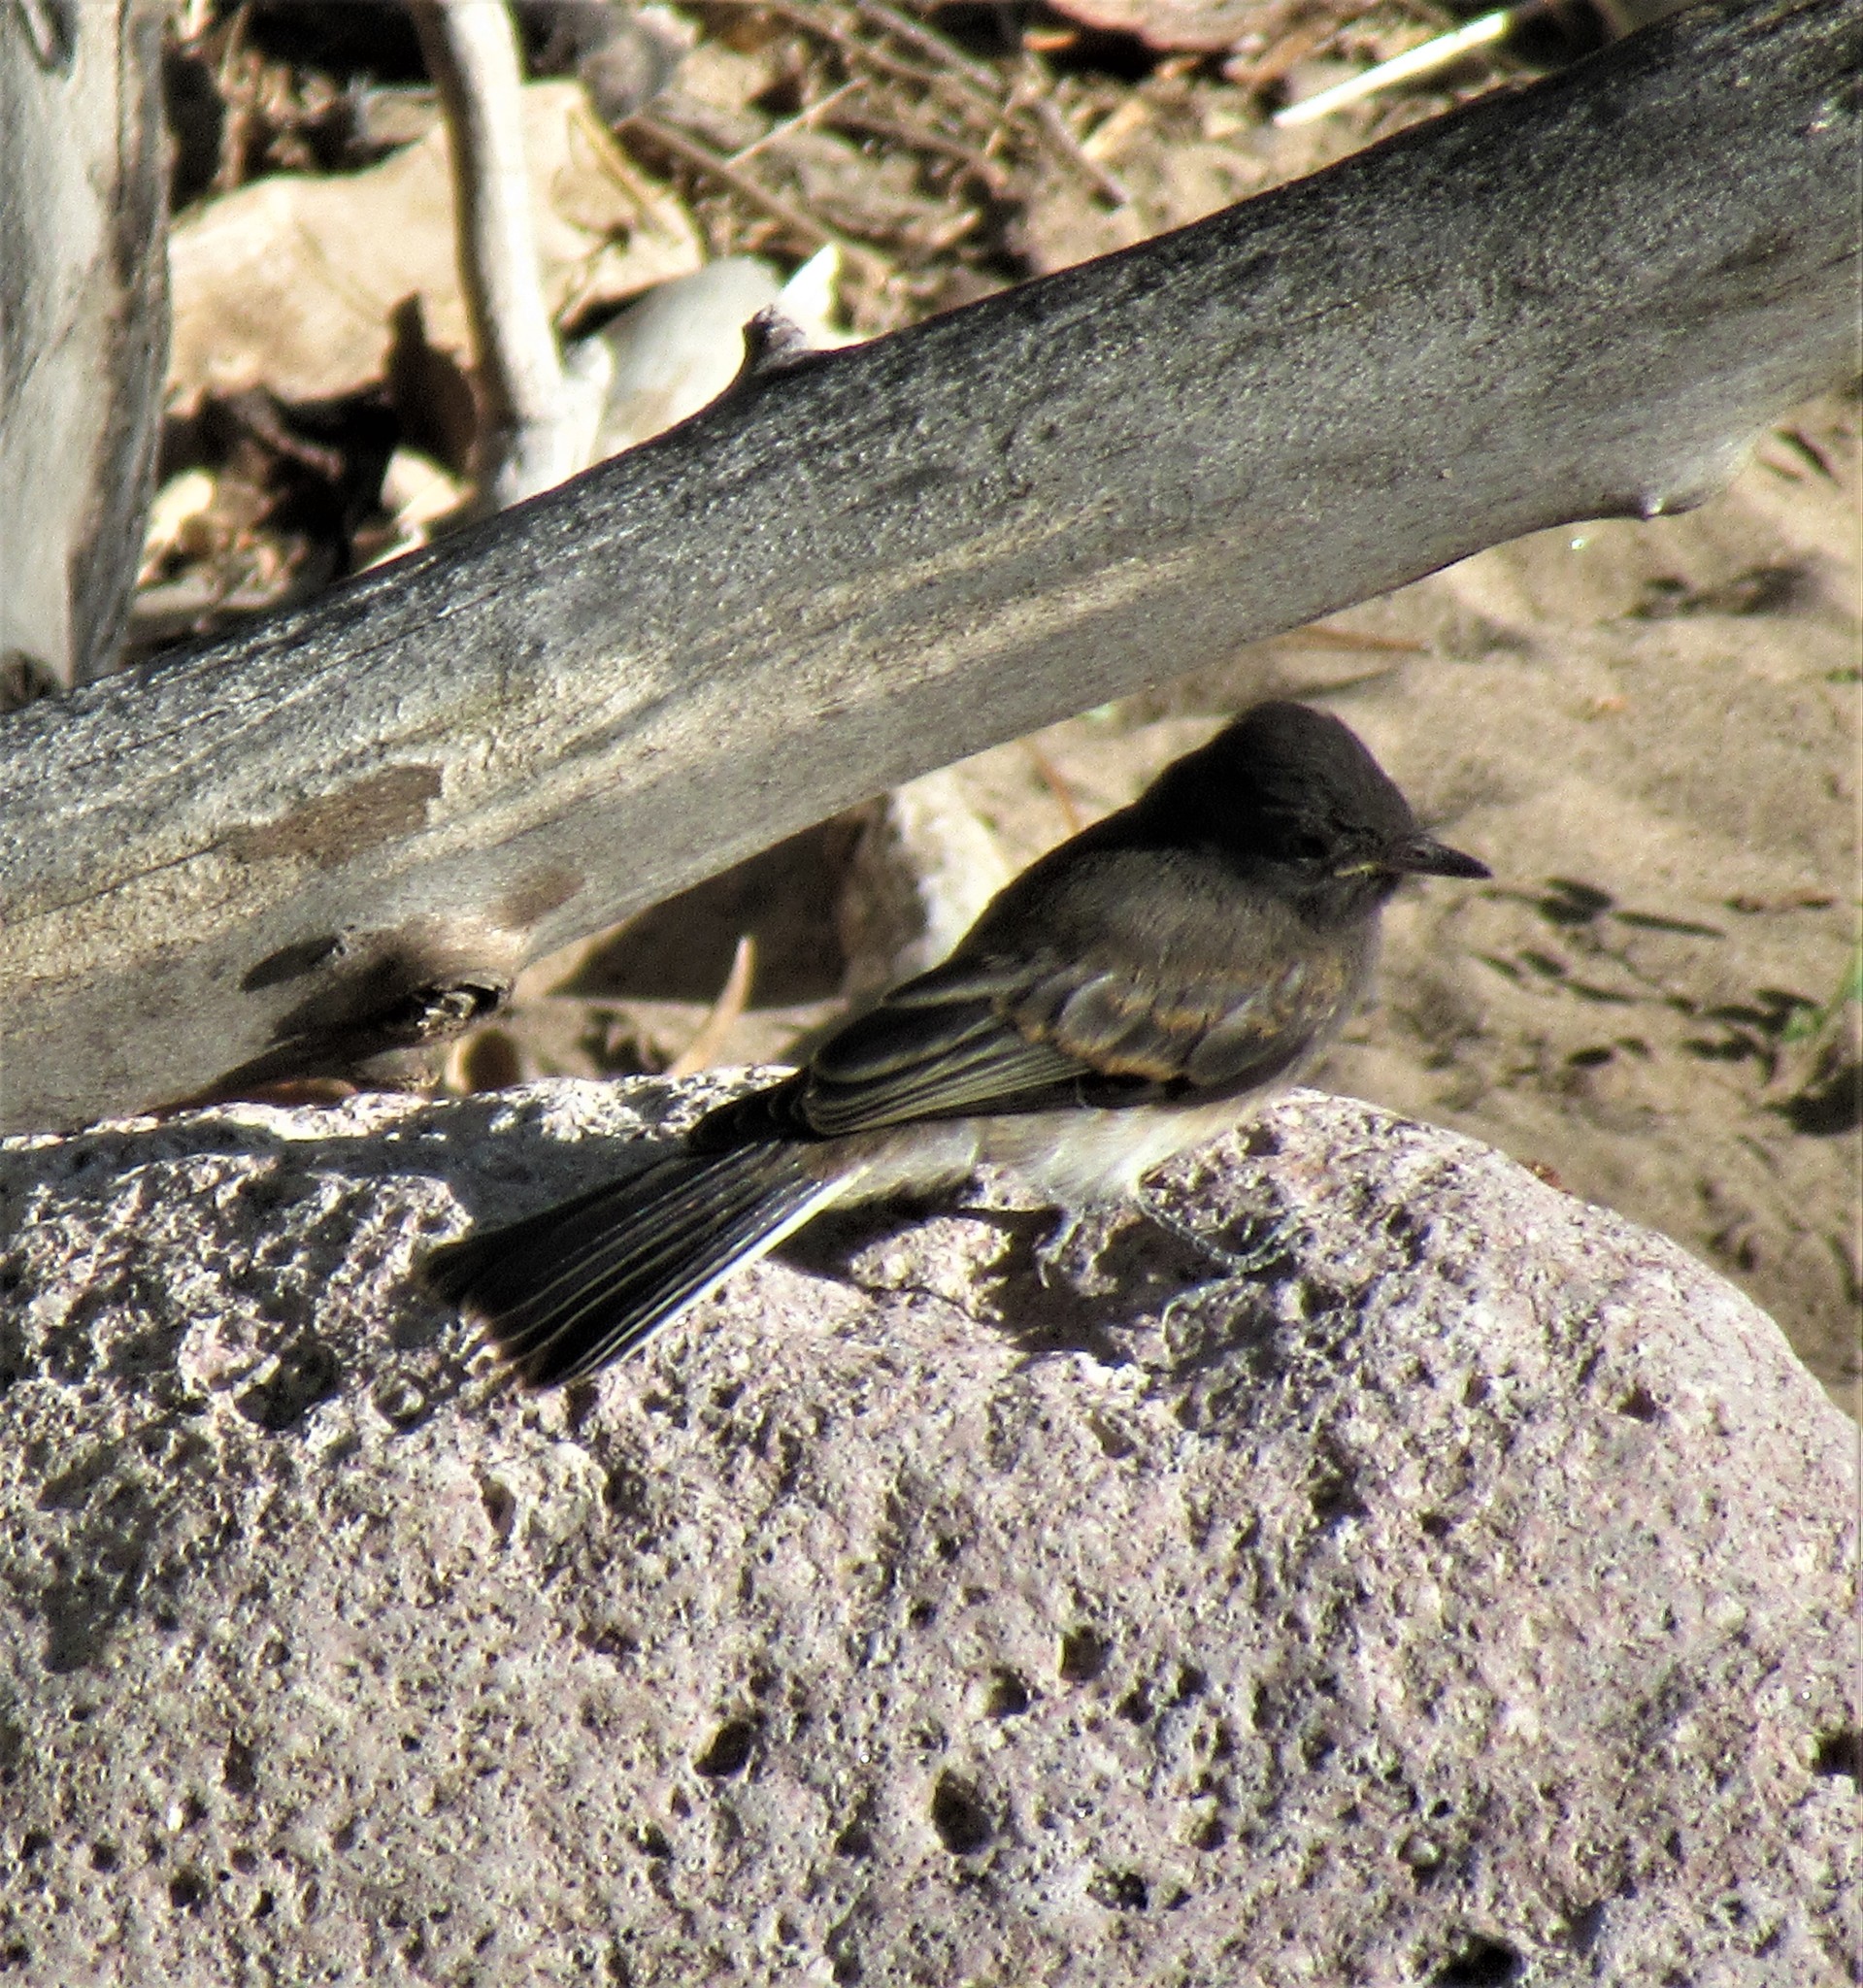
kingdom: Animalia
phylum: Chordata
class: Aves
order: Passeriformes
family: Tyrannidae
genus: Sayornis
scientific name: Sayornis nigricans
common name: Black phoebe
